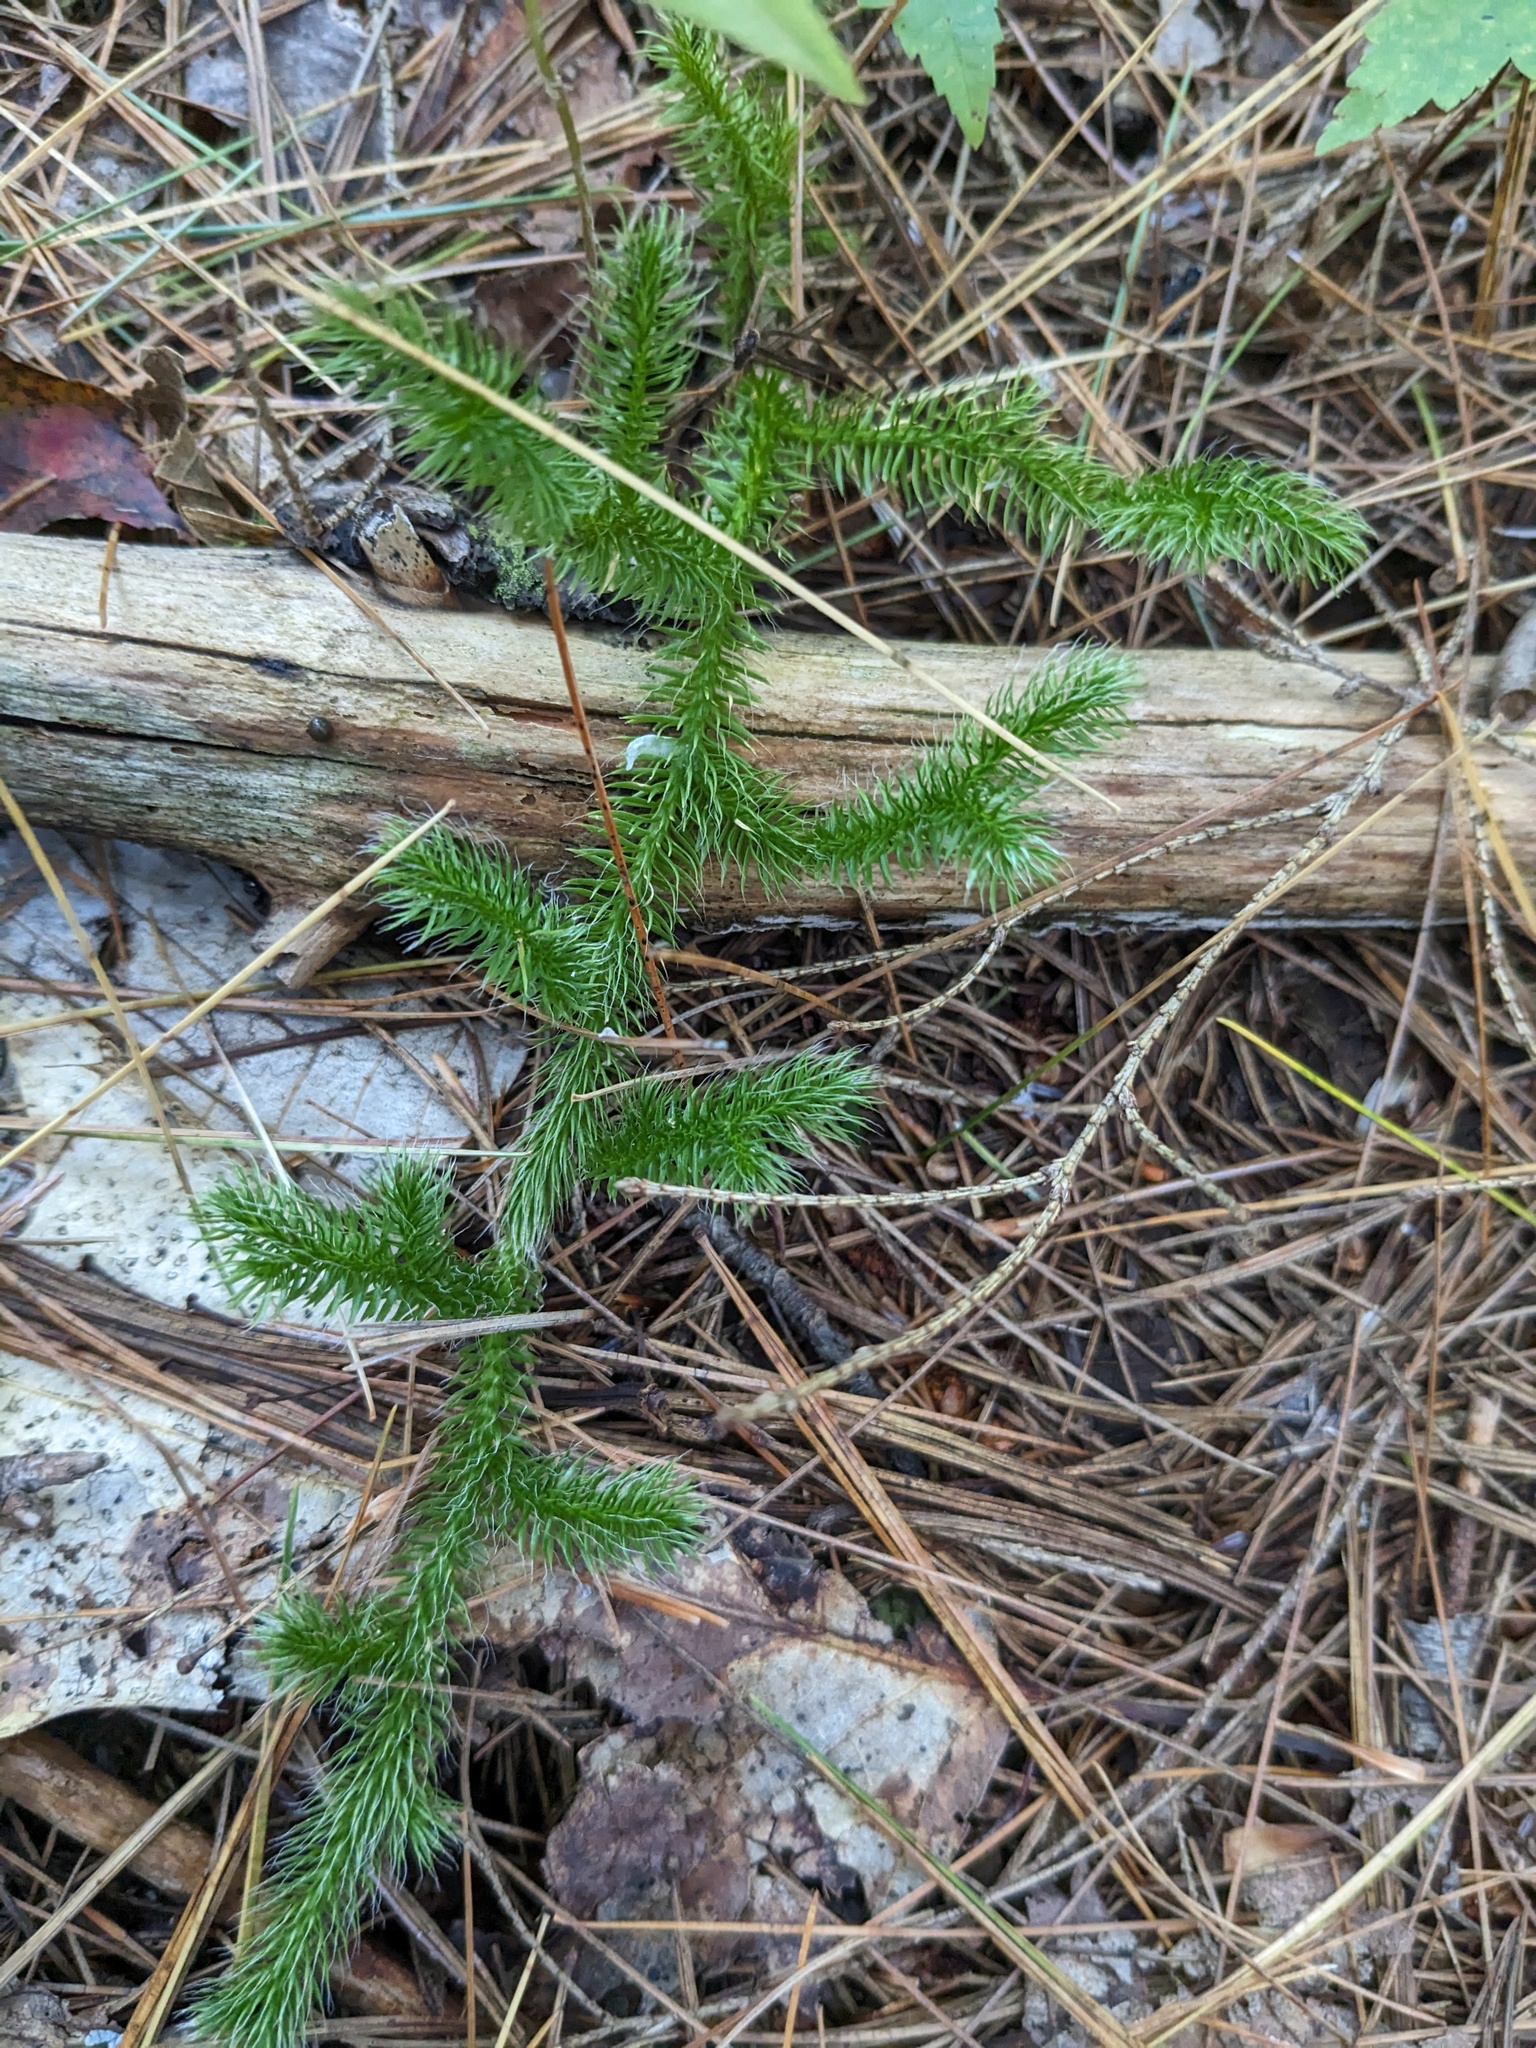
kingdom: Plantae
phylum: Tracheophyta
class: Lycopodiopsida
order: Lycopodiales
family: Lycopodiaceae
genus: Lycopodium
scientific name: Lycopodium clavatum
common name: Stag's-horn clubmoss
